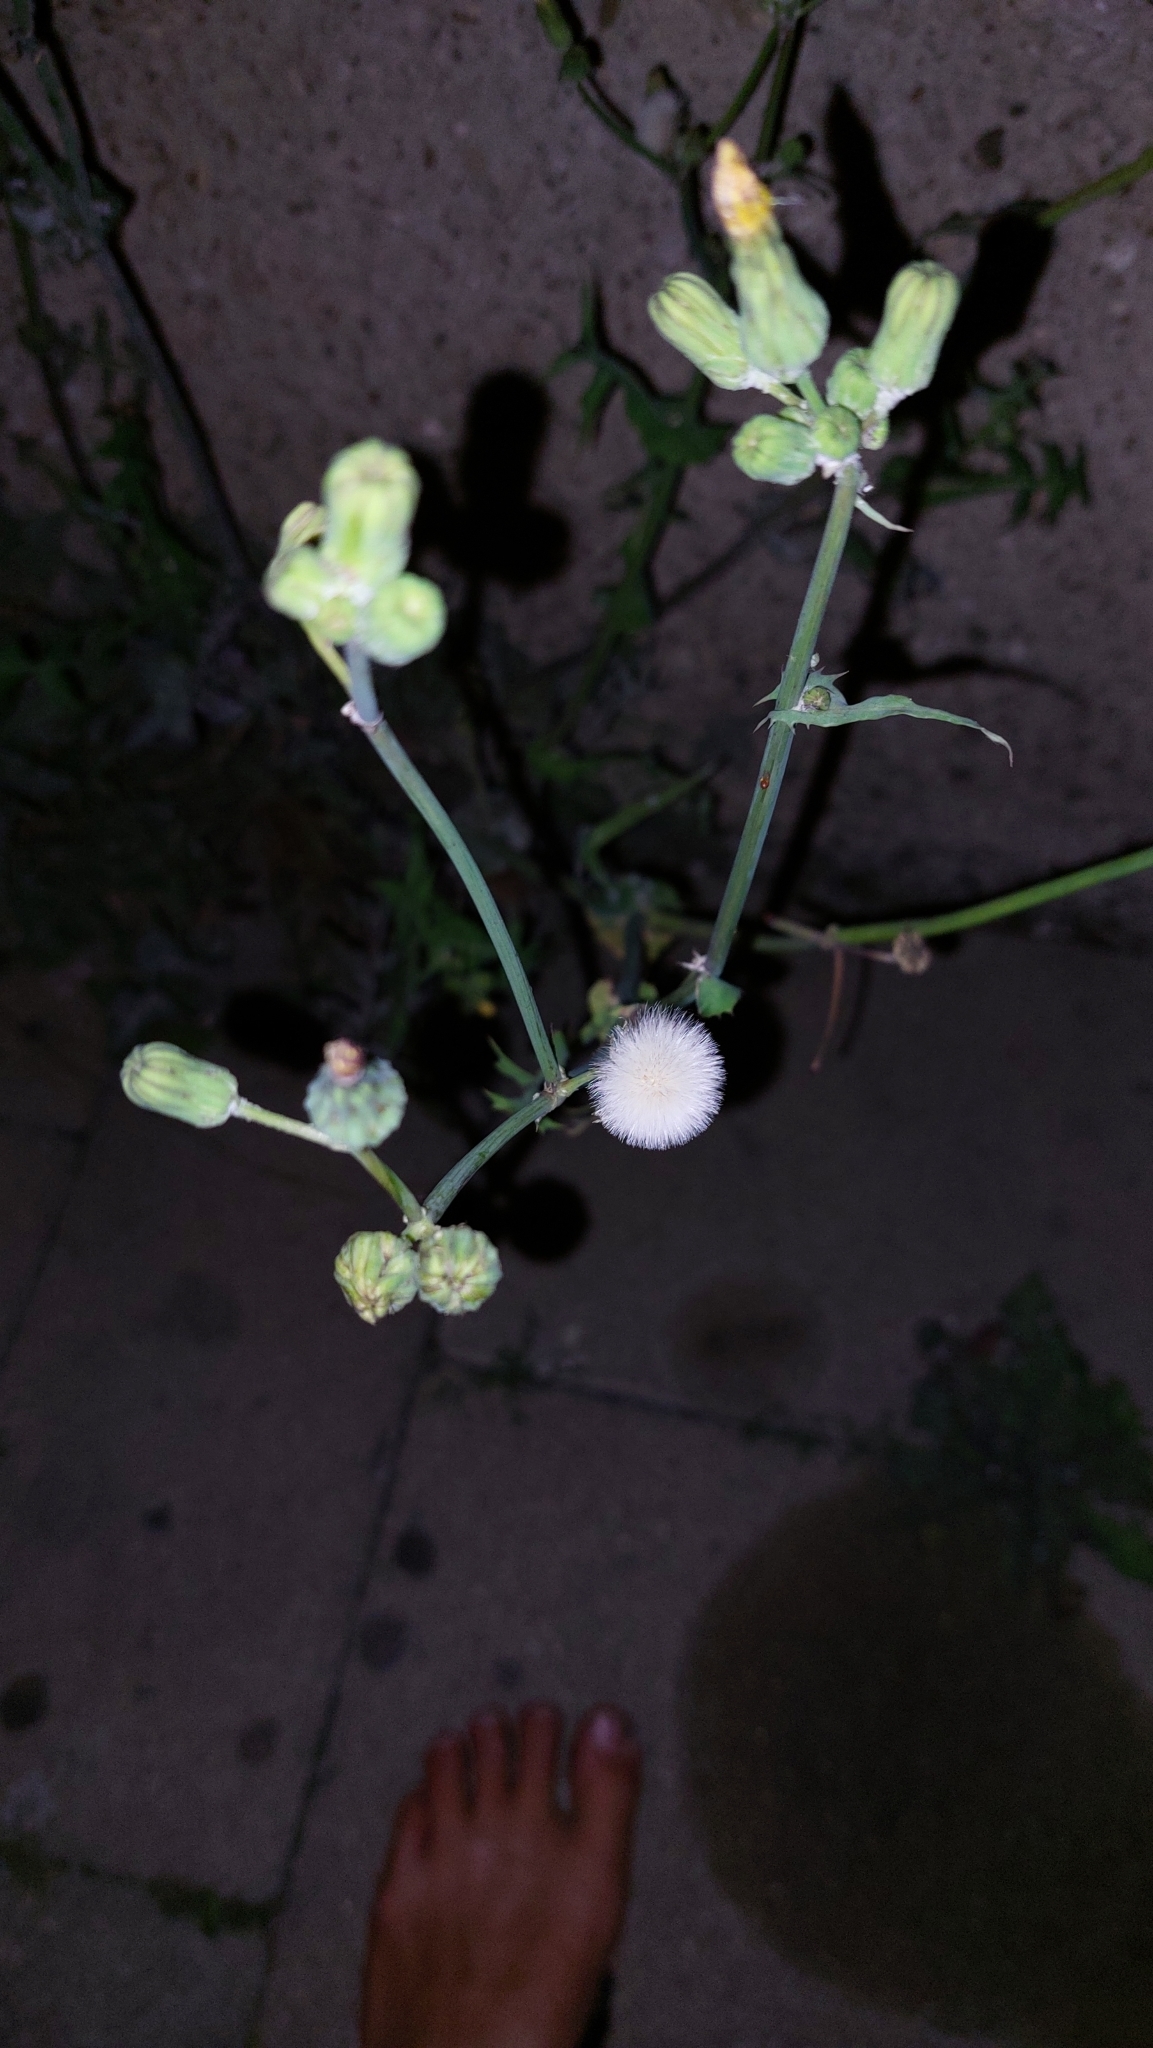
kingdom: Plantae
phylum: Tracheophyta
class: Magnoliopsida
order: Asterales
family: Asteraceae
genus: Sonchus
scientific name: Sonchus oleraceus
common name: Common sowthistle
